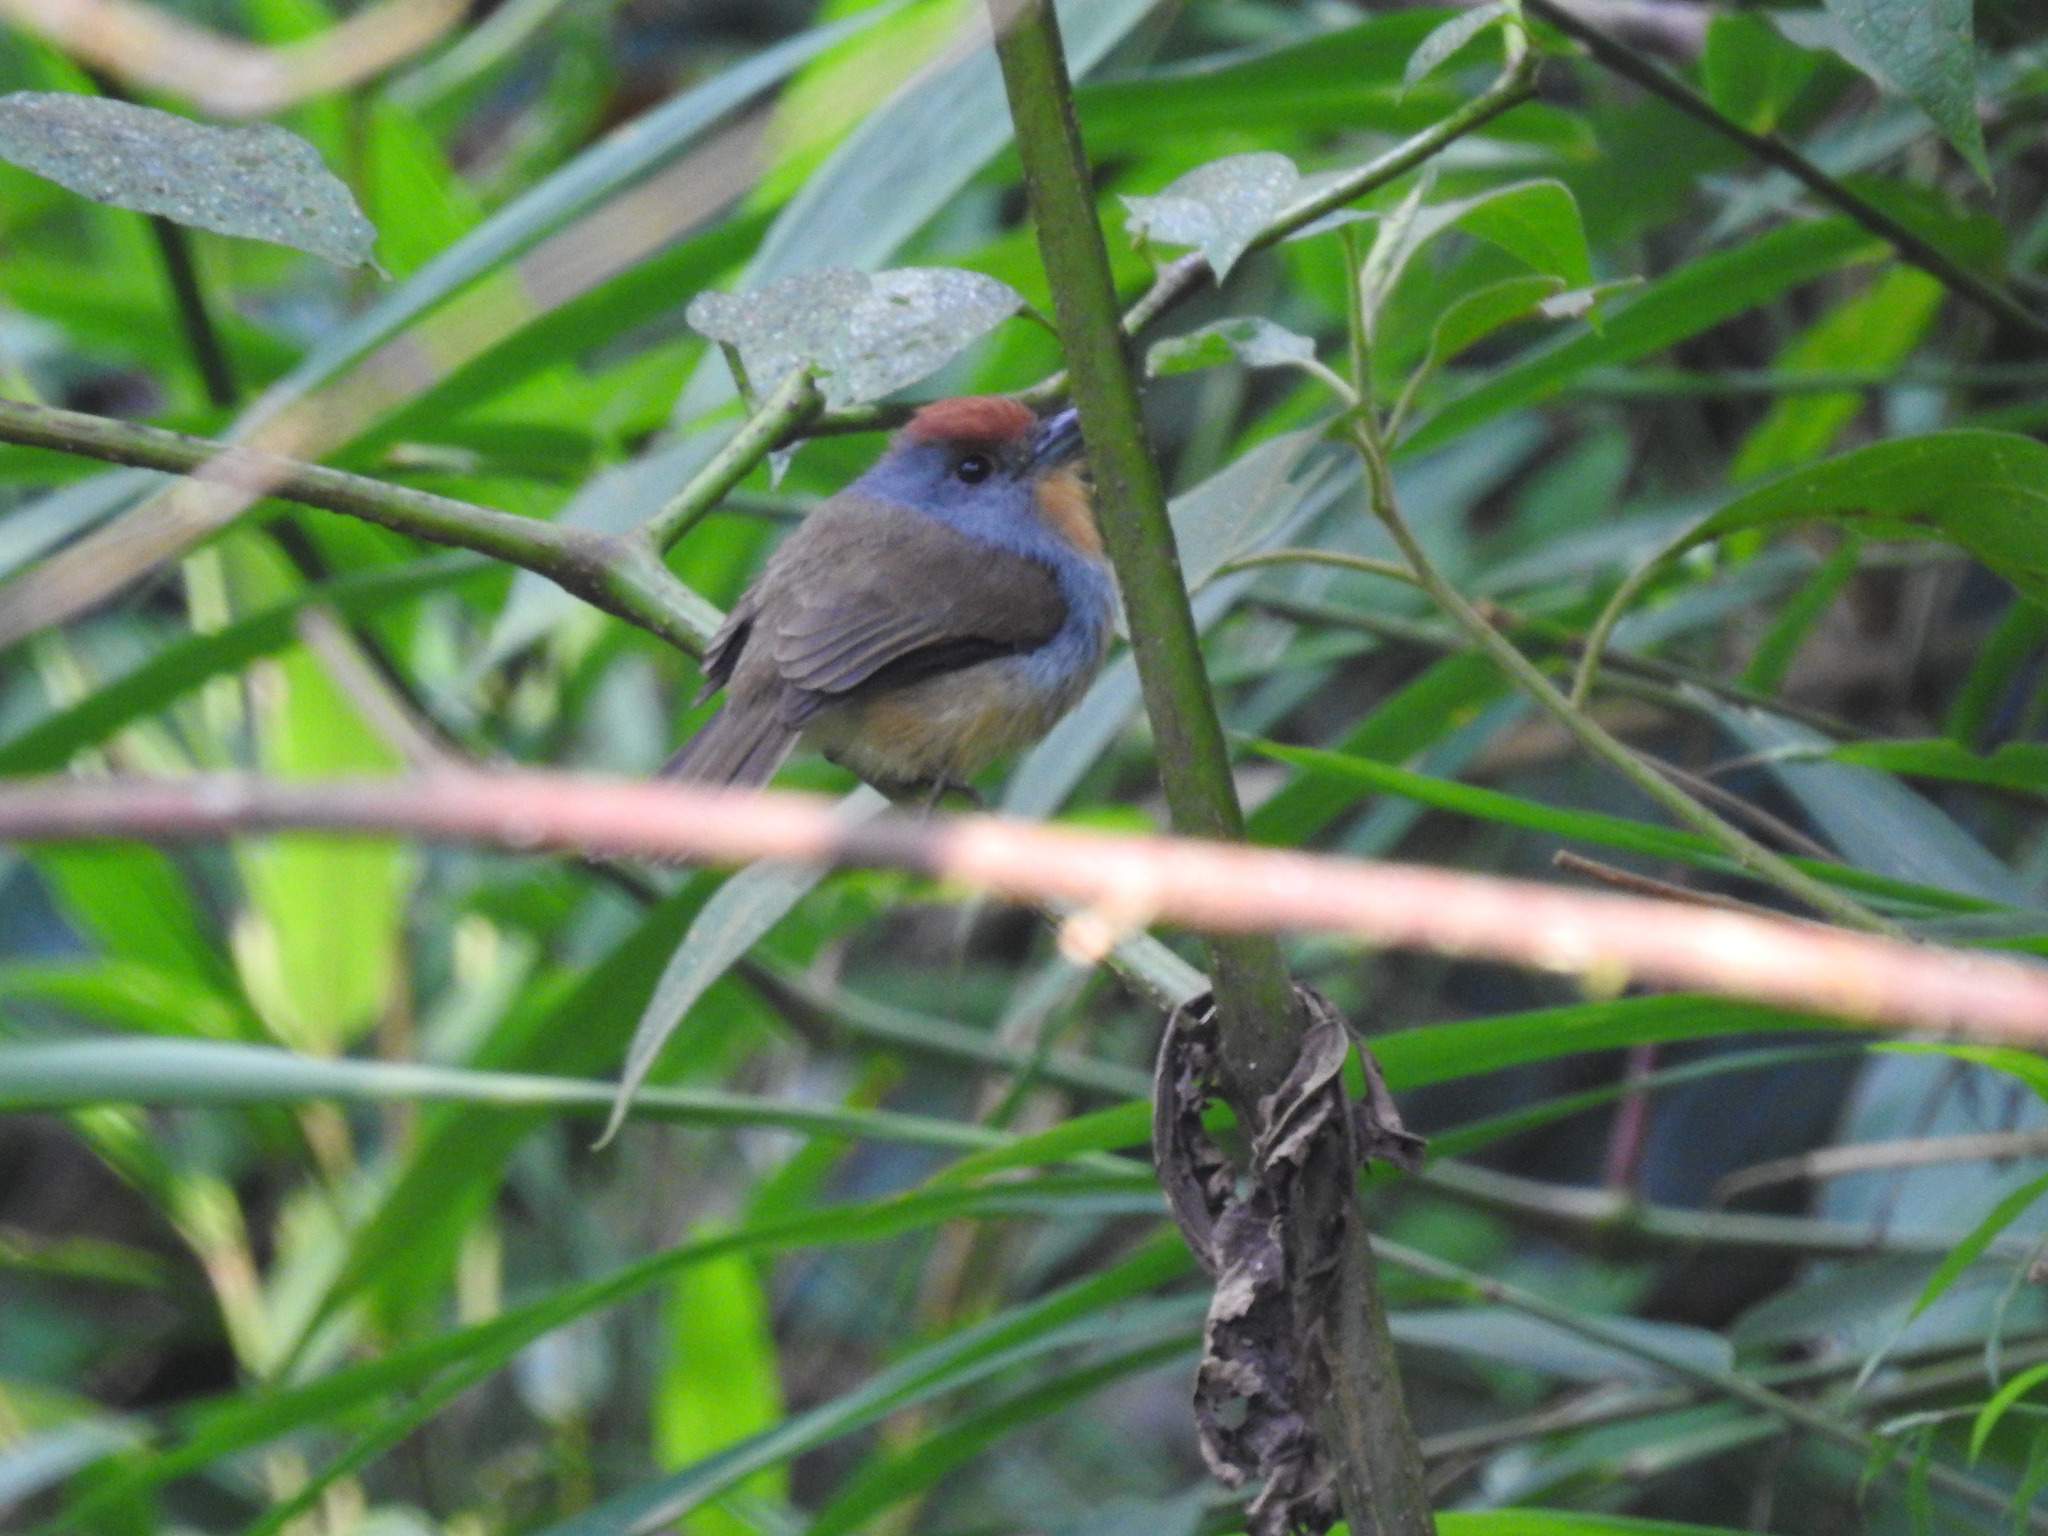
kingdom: Animalia
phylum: Chordata
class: Aves
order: Piciformes
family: Bucconidae
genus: Nonnula
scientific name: Nonnula ruficapilla
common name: Rufous-capped nunlet
